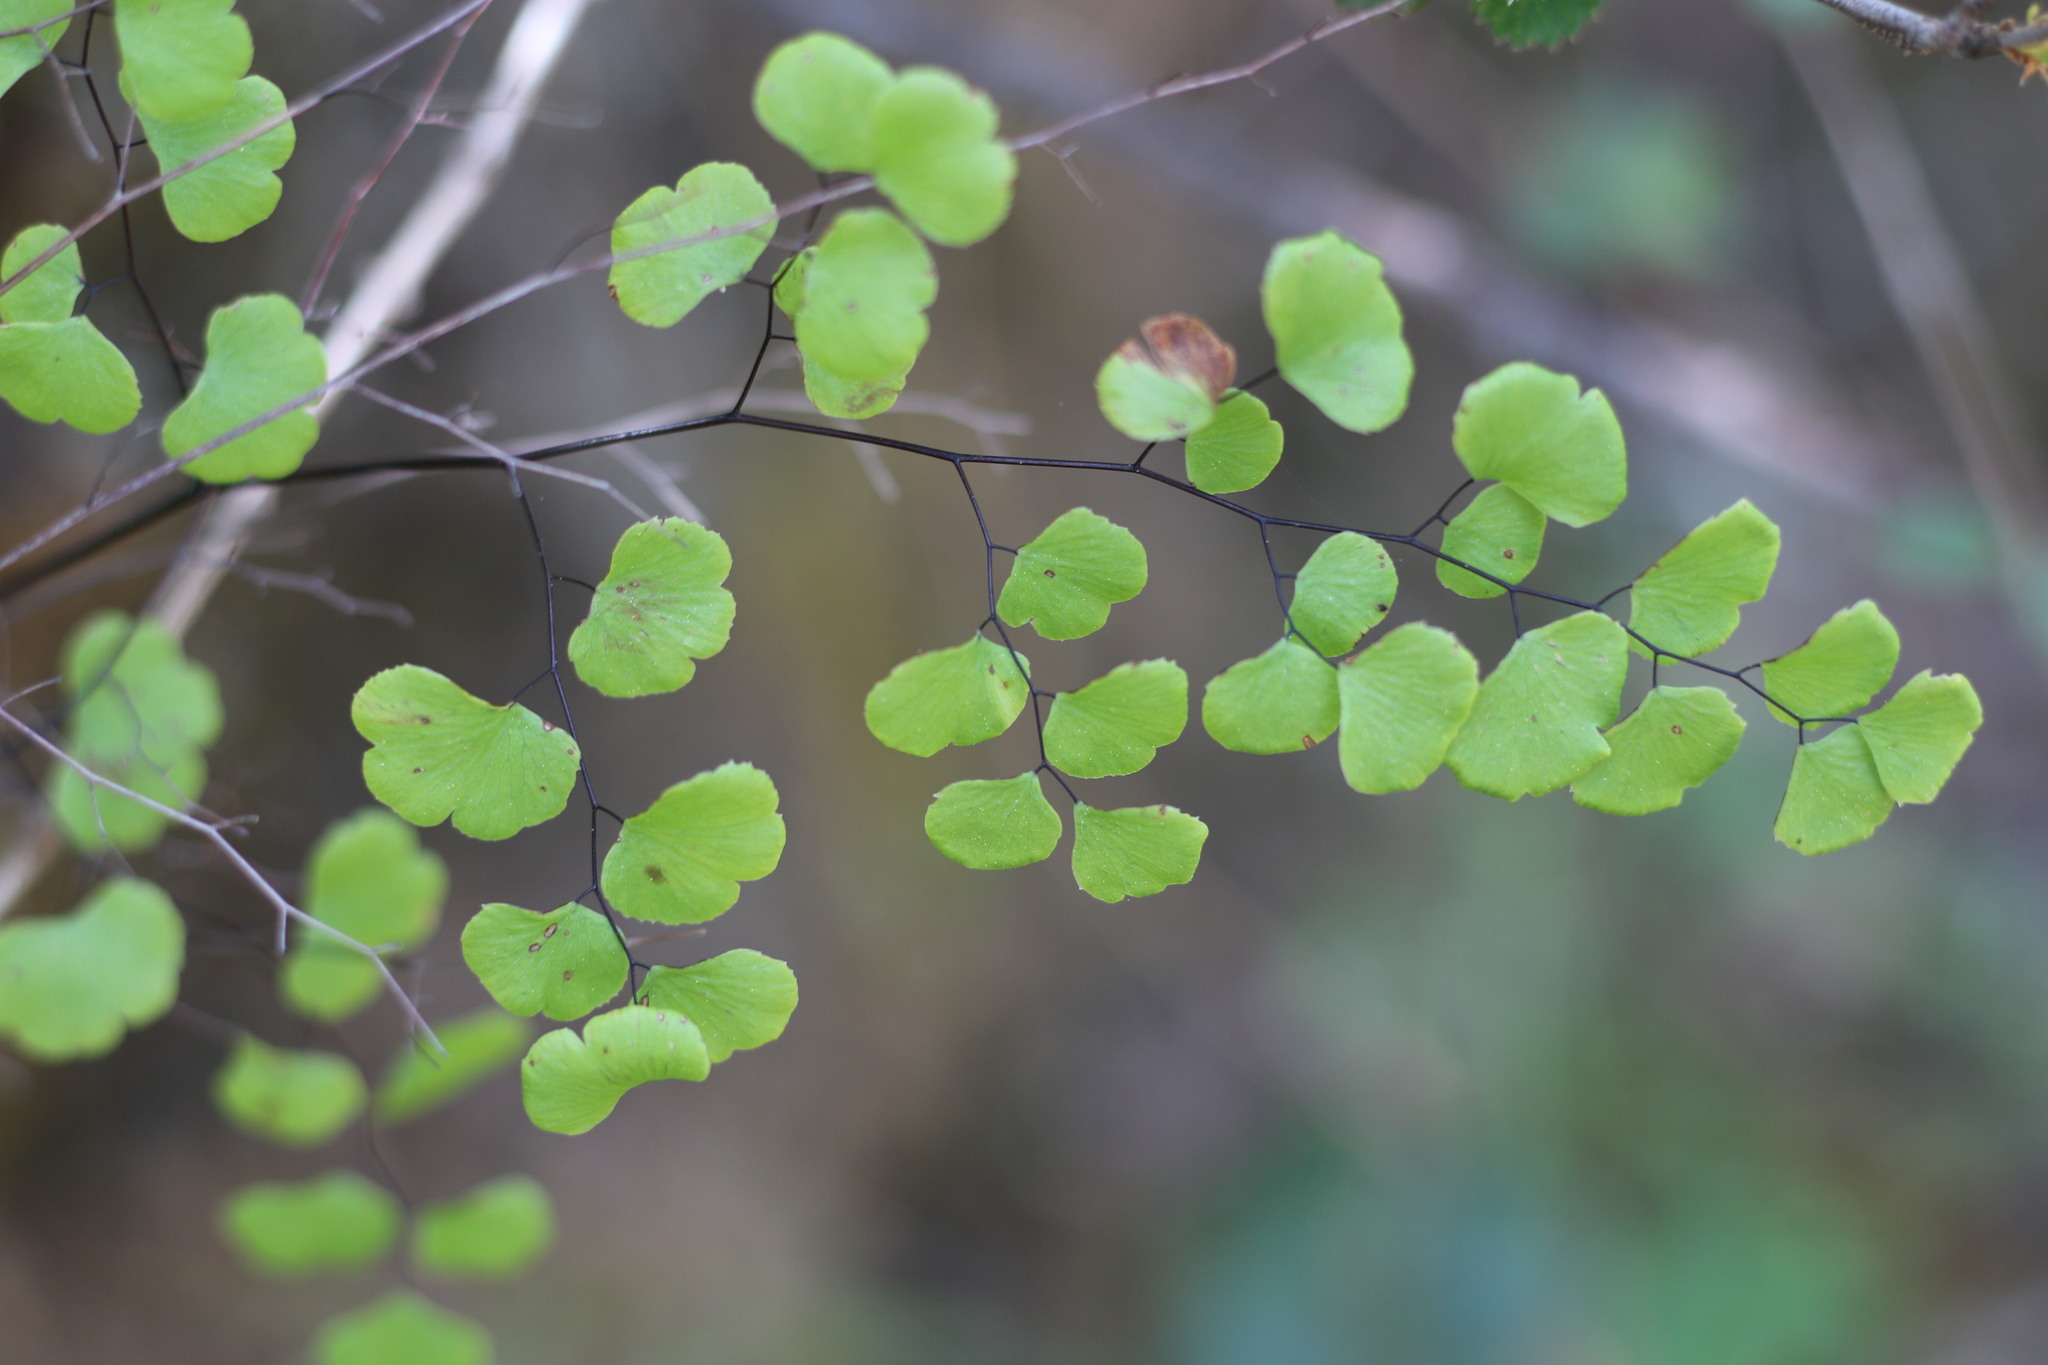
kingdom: Plantae
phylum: Tracheophyta
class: Polypodiopsida
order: Polypodiales
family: Pteridaceae
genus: Adiantum
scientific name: Adiantum jordanii
